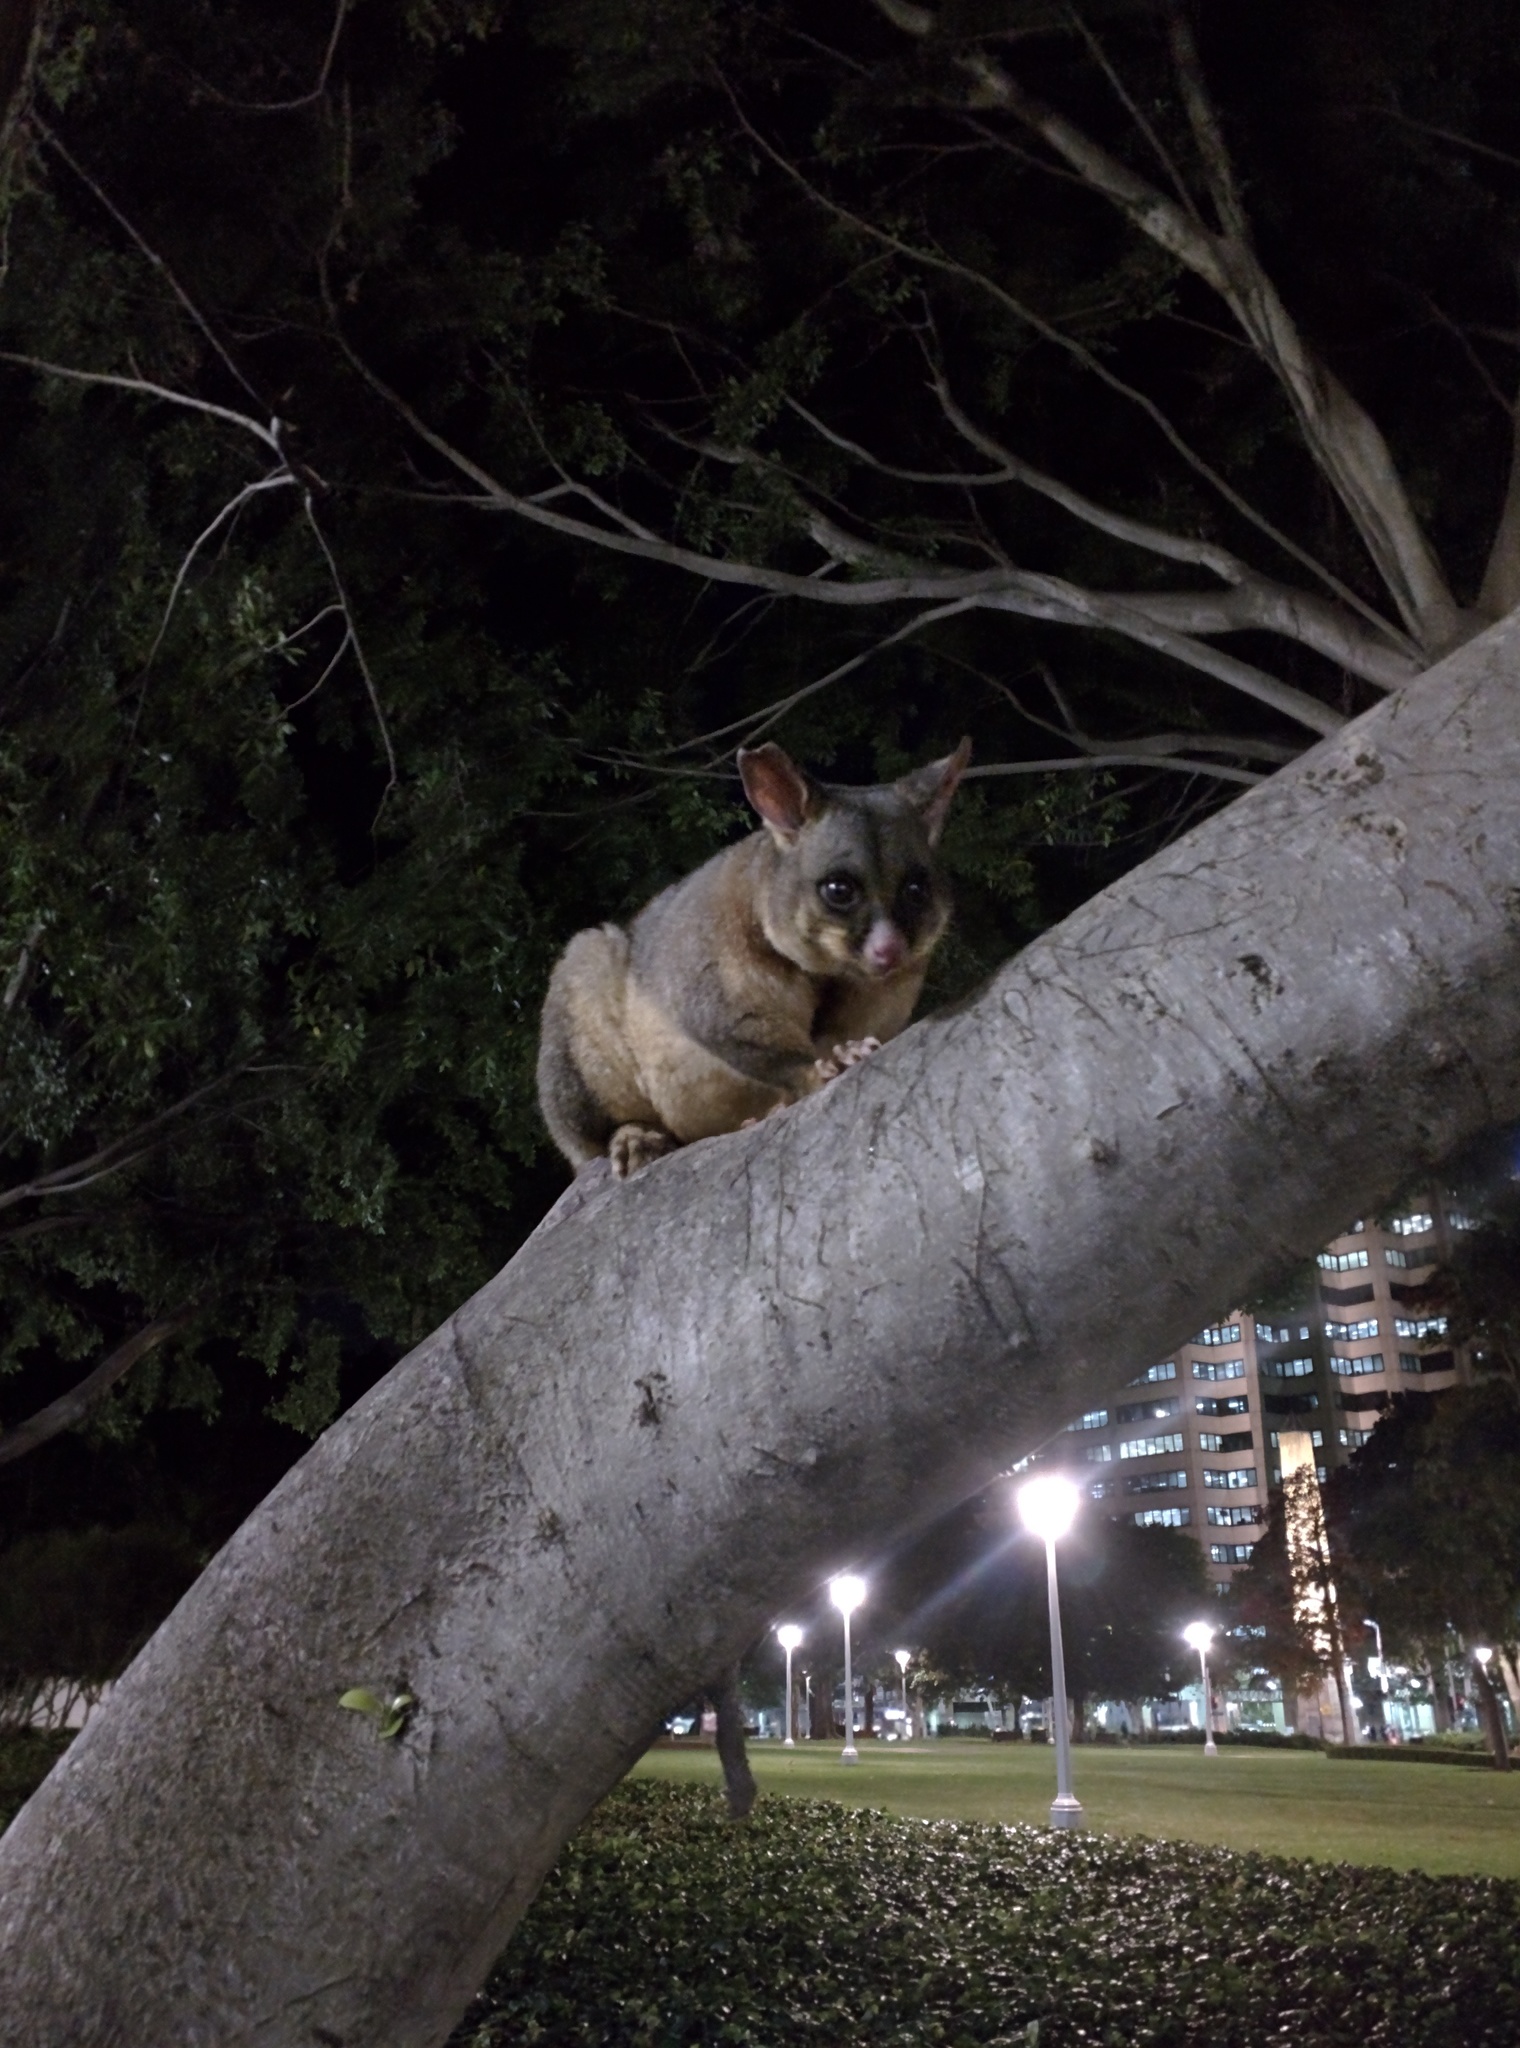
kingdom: Animalia
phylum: Chordata
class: Mammalia
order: Diprotodontia
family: Phalangeridae
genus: Trichosurus
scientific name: Trichosurus vulpecula
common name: Common brushtail
